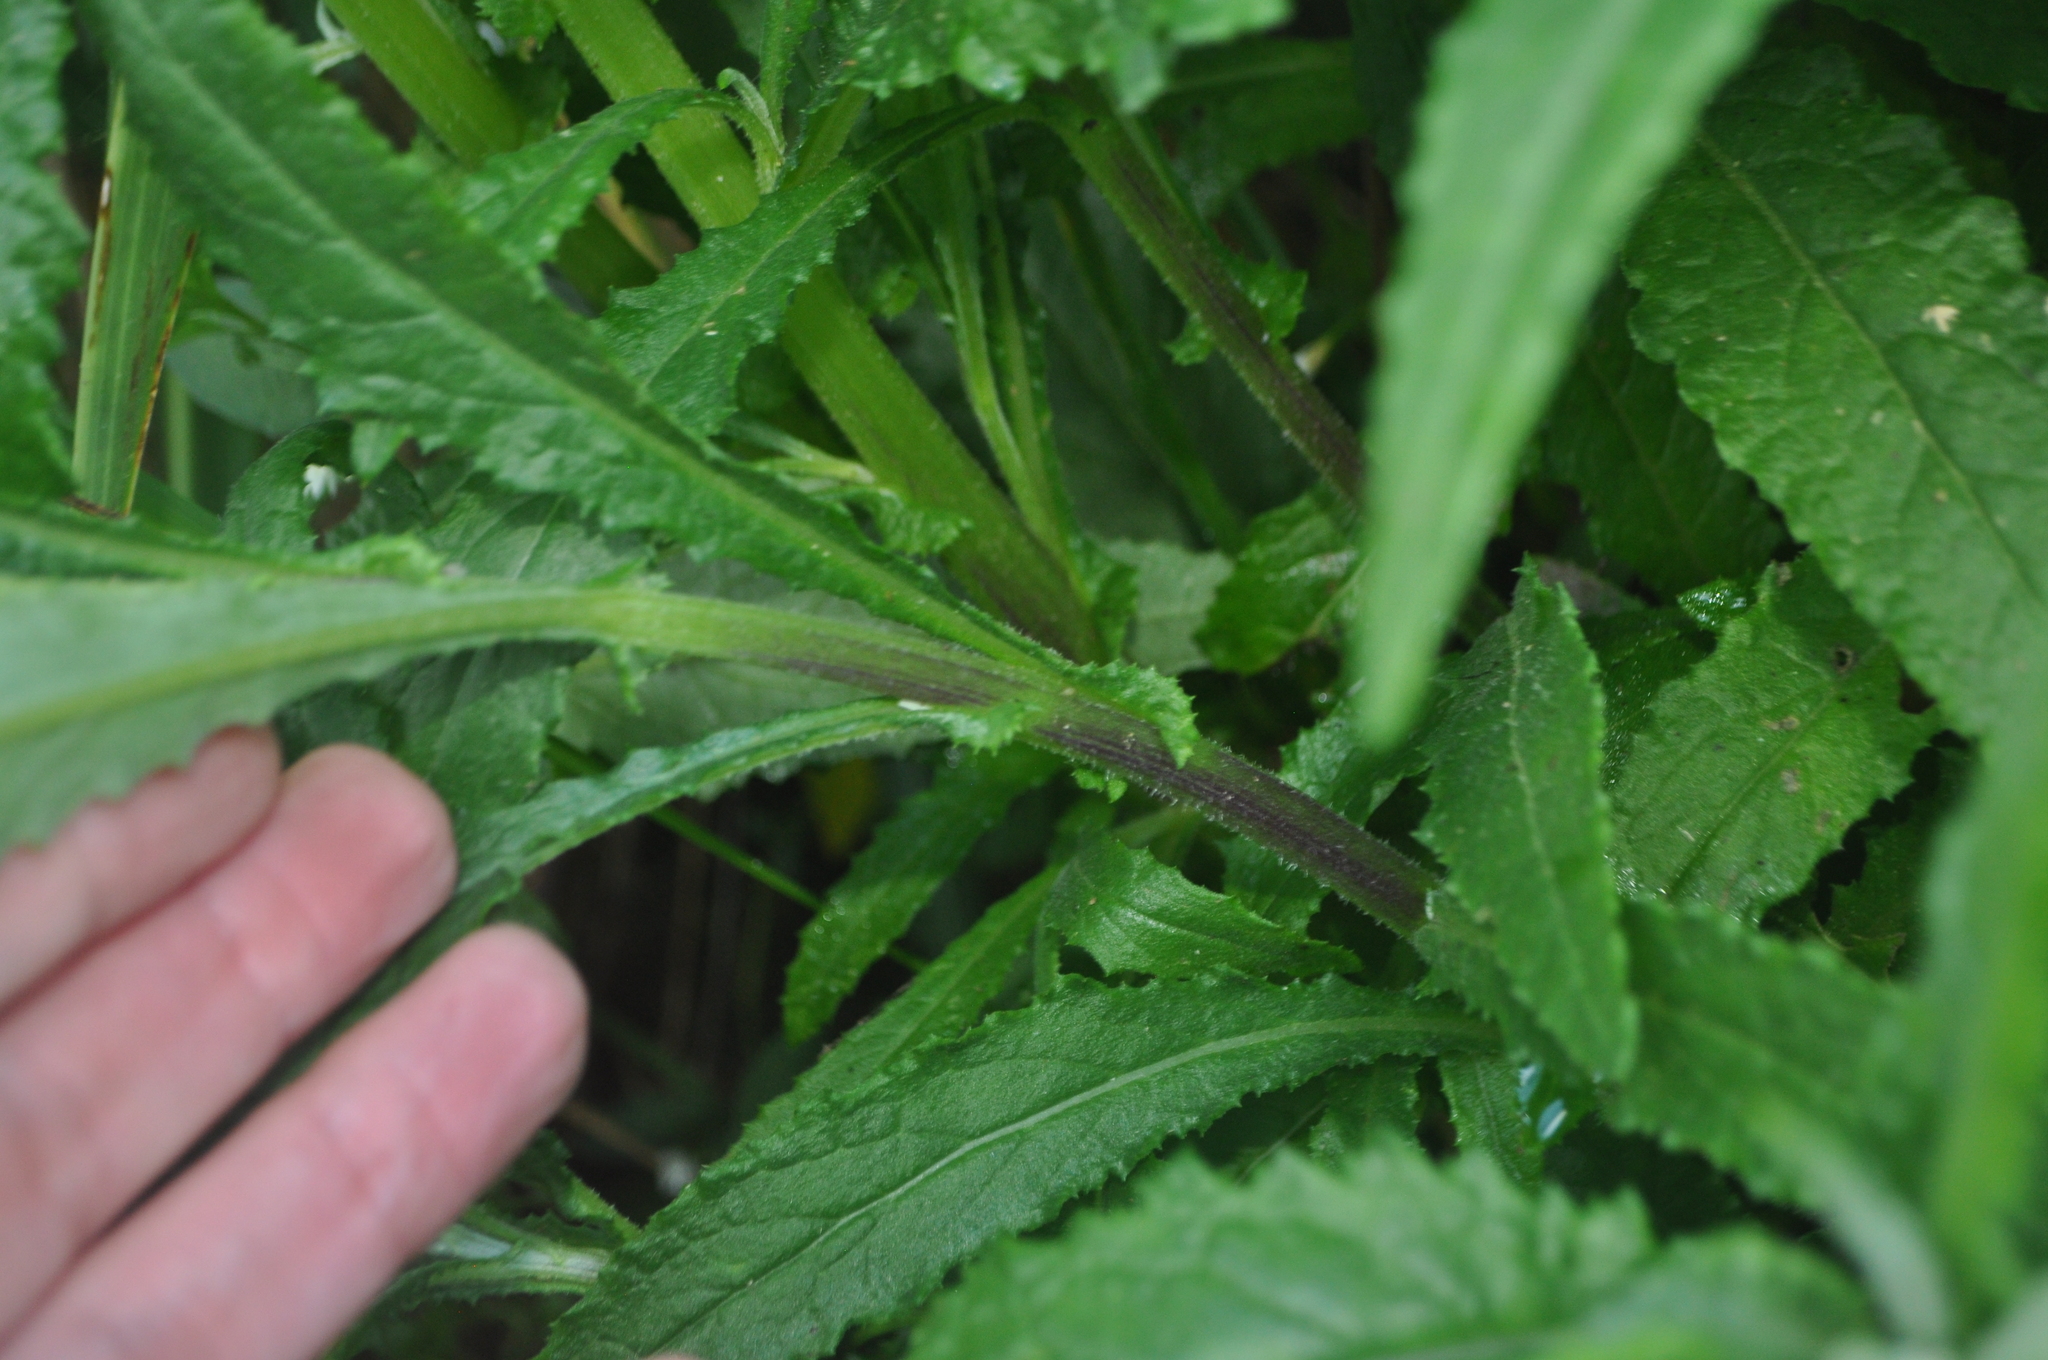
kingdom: Plantae
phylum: Tracheophyta
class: Magnoliopsida
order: Asterales
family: Asteraceae
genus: Senecio
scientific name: Senecio minimus
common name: Toothed fireweed
